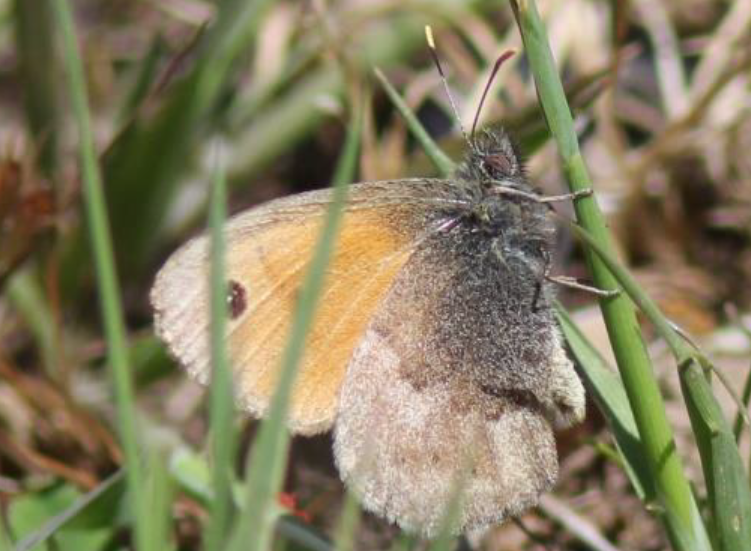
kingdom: Animalia
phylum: Arthropoda
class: Insecta
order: Lepidoptera
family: Nymphalidae
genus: Coenonympha
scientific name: Coenonympha pamphilus
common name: Small heath
